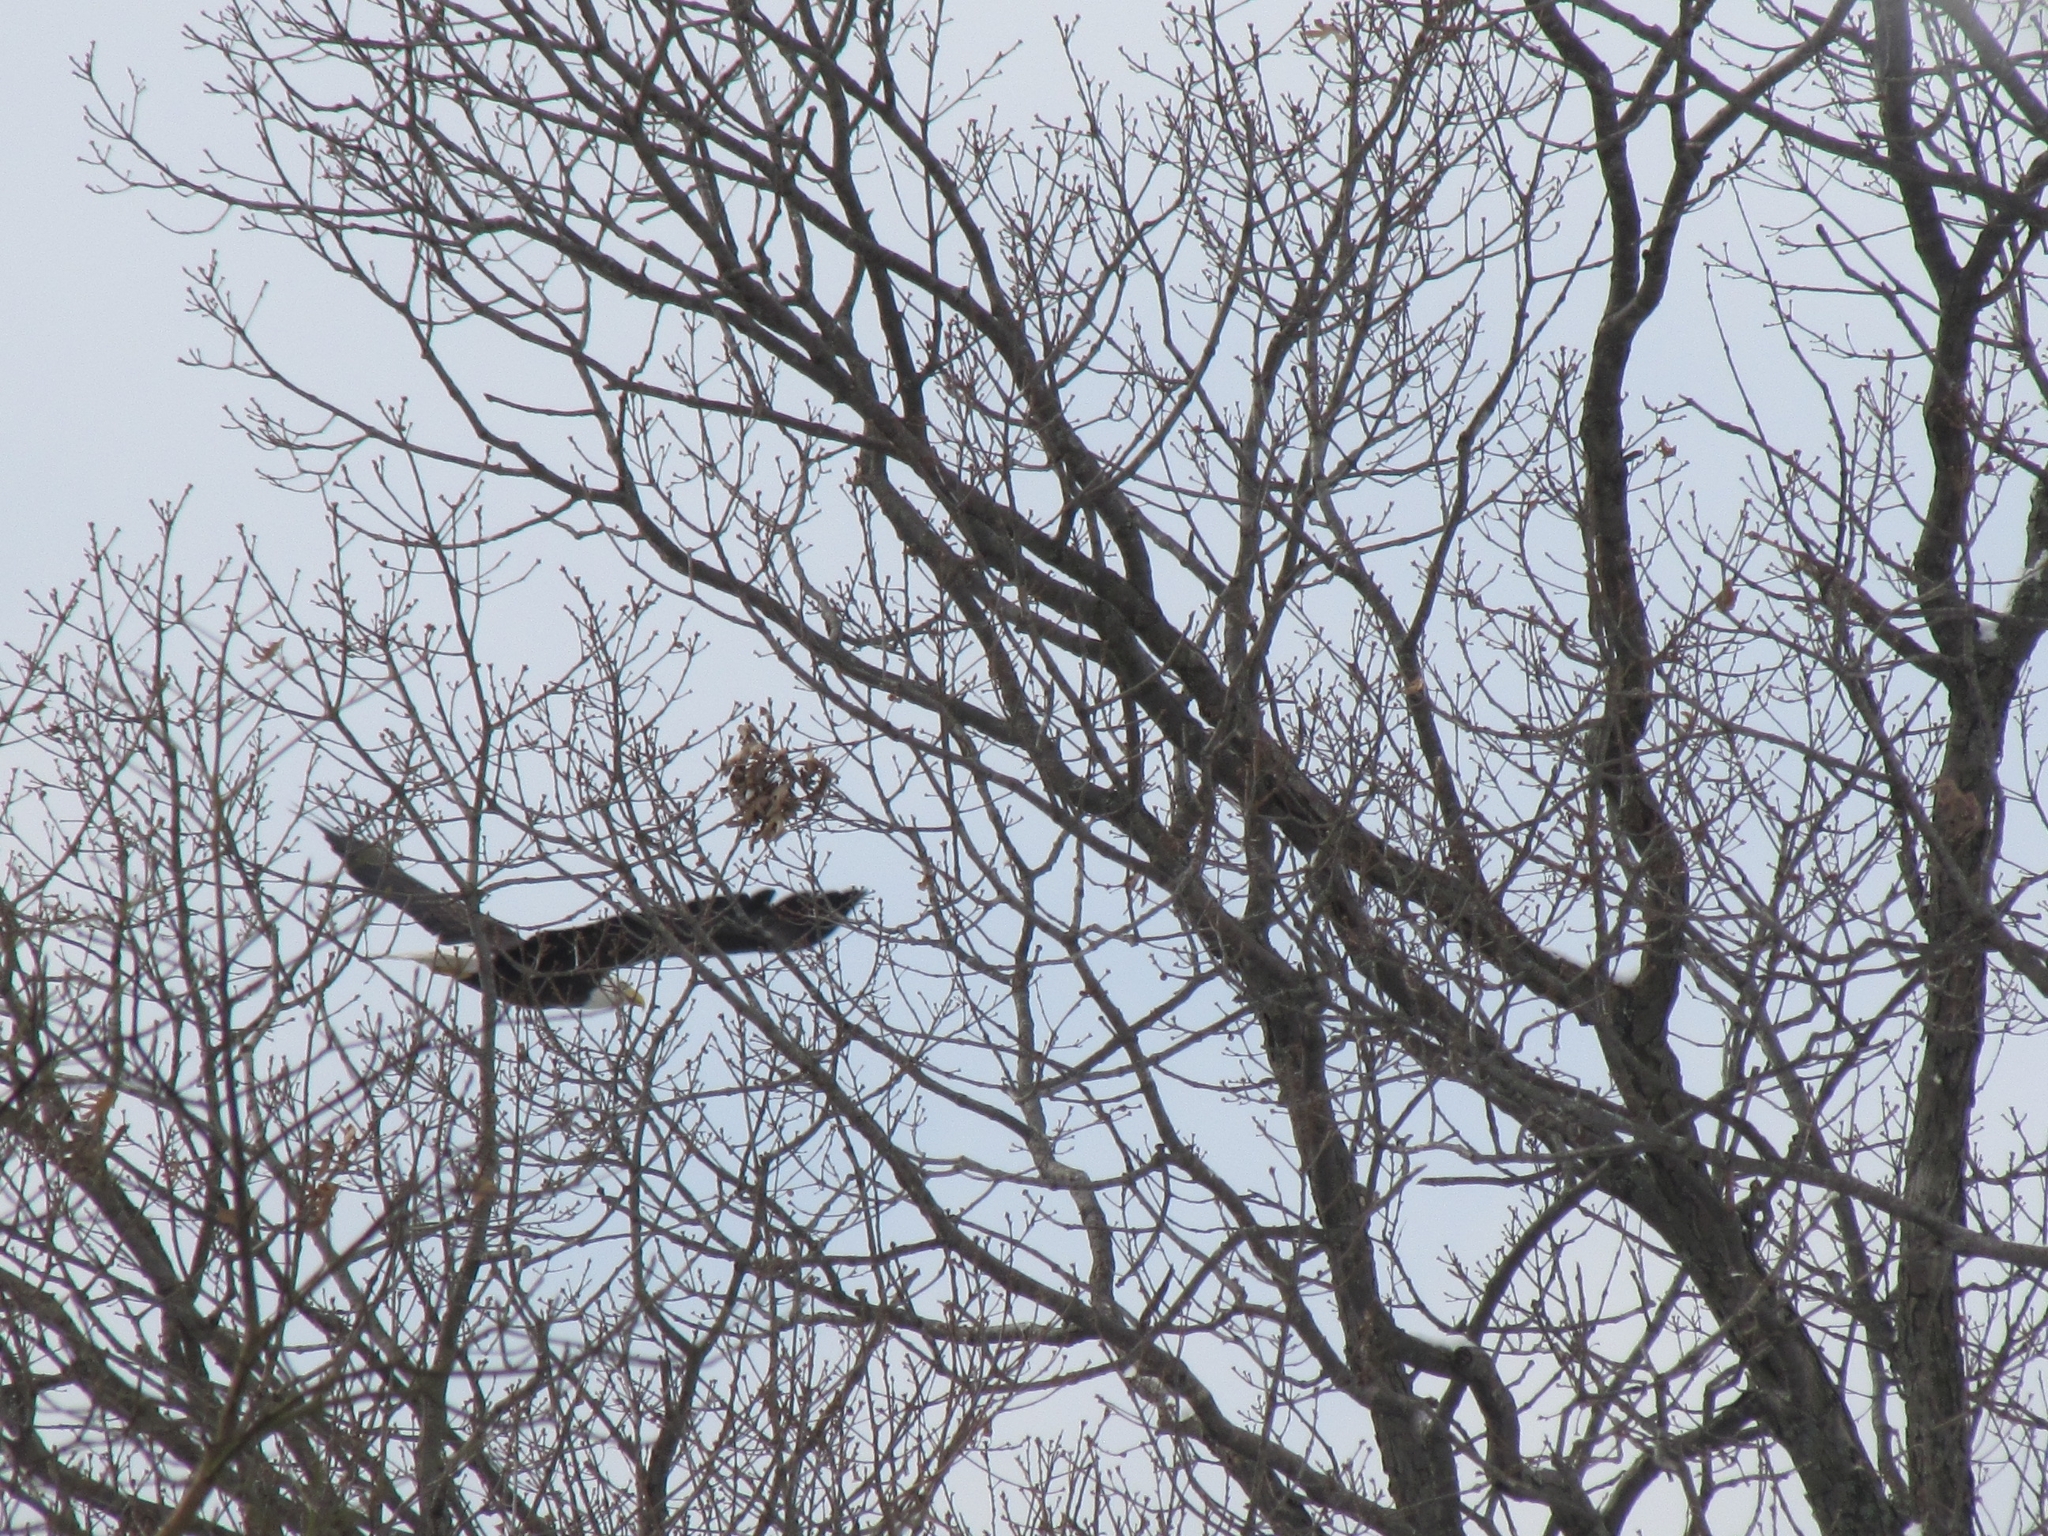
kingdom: Animalia
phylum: Chordata
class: Aves
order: Accipitriformes
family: Accipitridae
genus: Haliaeetus
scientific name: Haliaeetus leucocephalus
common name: Bald eagle
